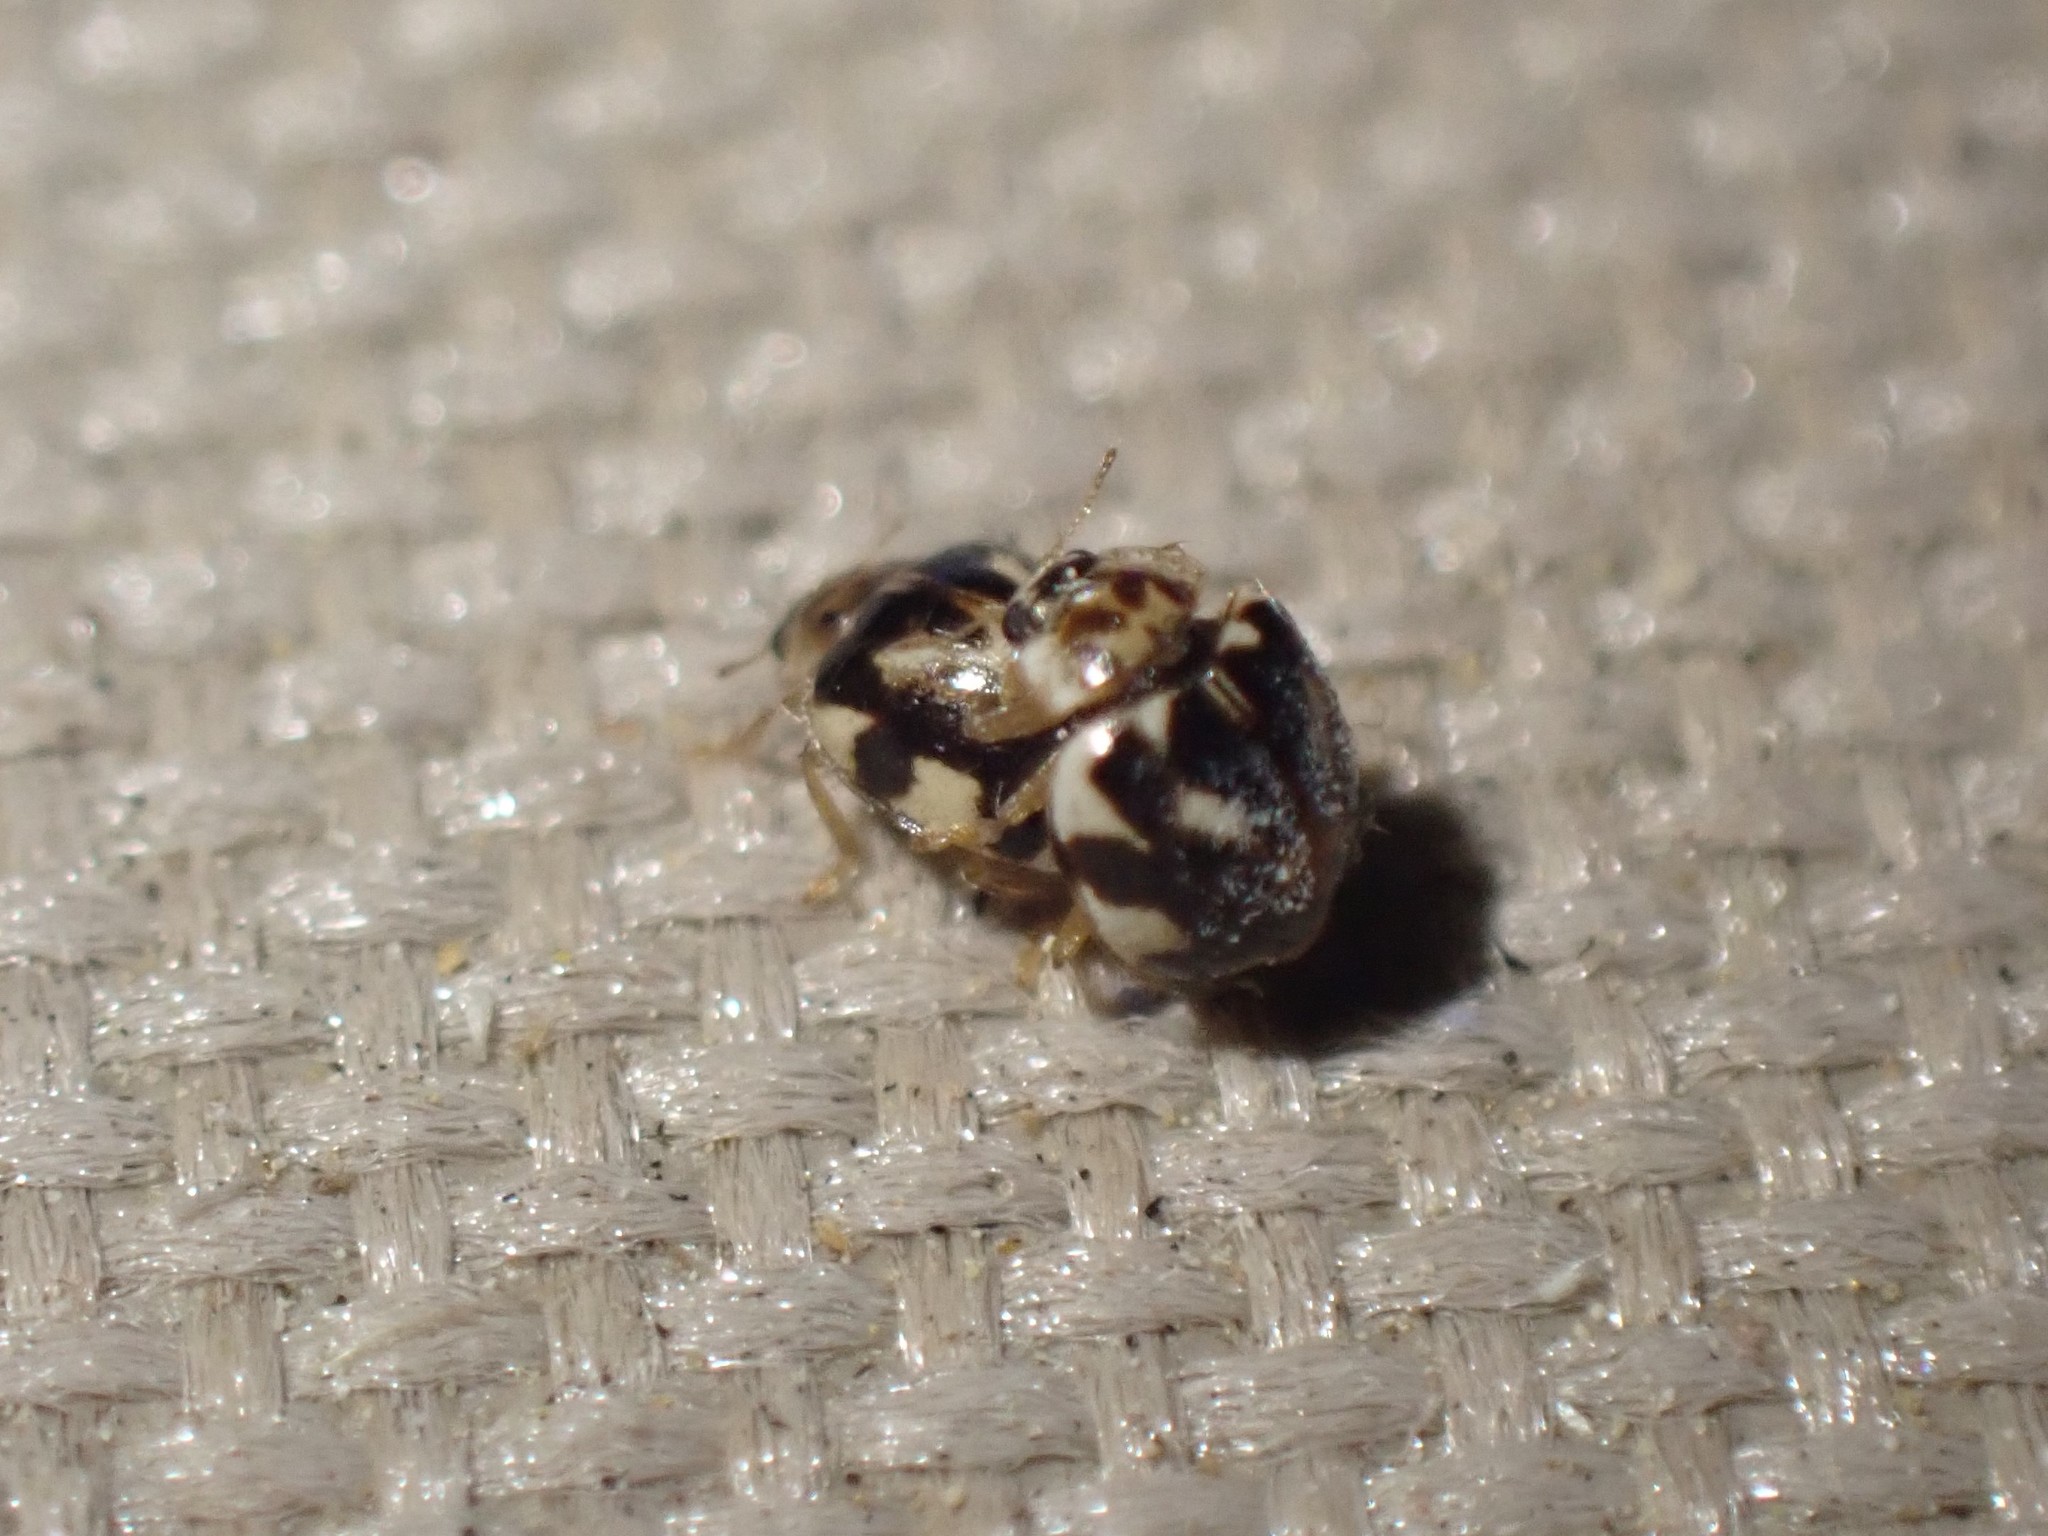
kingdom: Animalia
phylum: Arthropoda
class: Insecta
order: Coleoptera
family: Coccinellidae
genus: Psyllobora
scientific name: Psyllobora vigintimaculata
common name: Ladybird beetle
